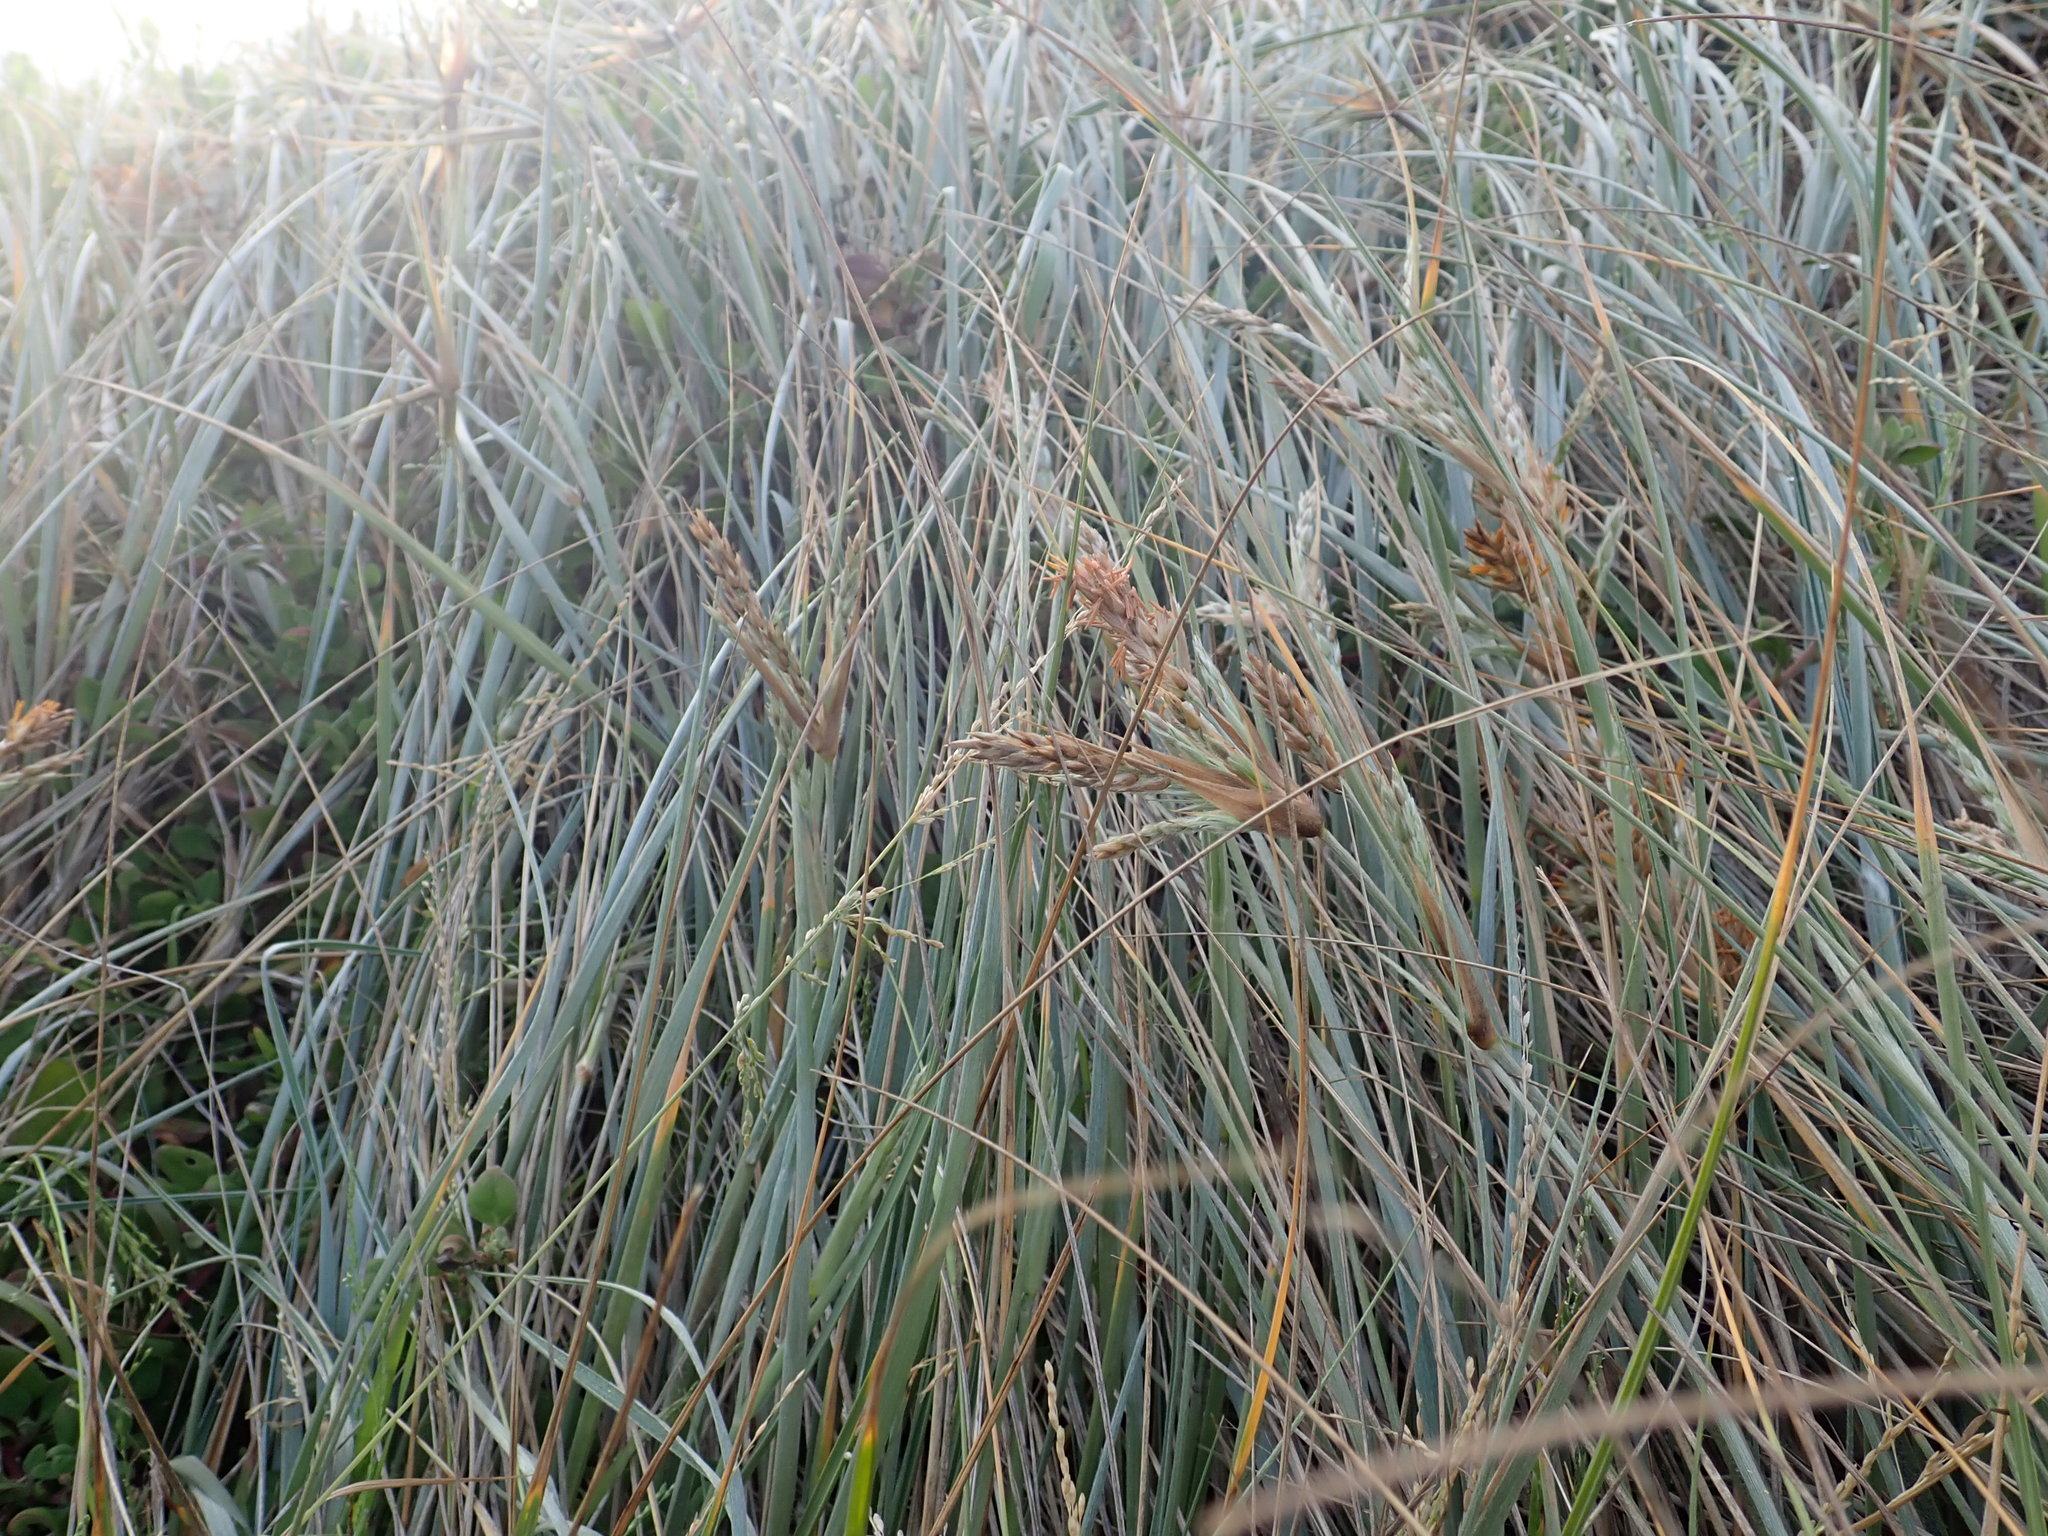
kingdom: Plantae
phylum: Tracheophyta
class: Liliopsida
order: Poales
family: Poaceae
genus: Spinifex
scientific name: Spinifex sericeus
